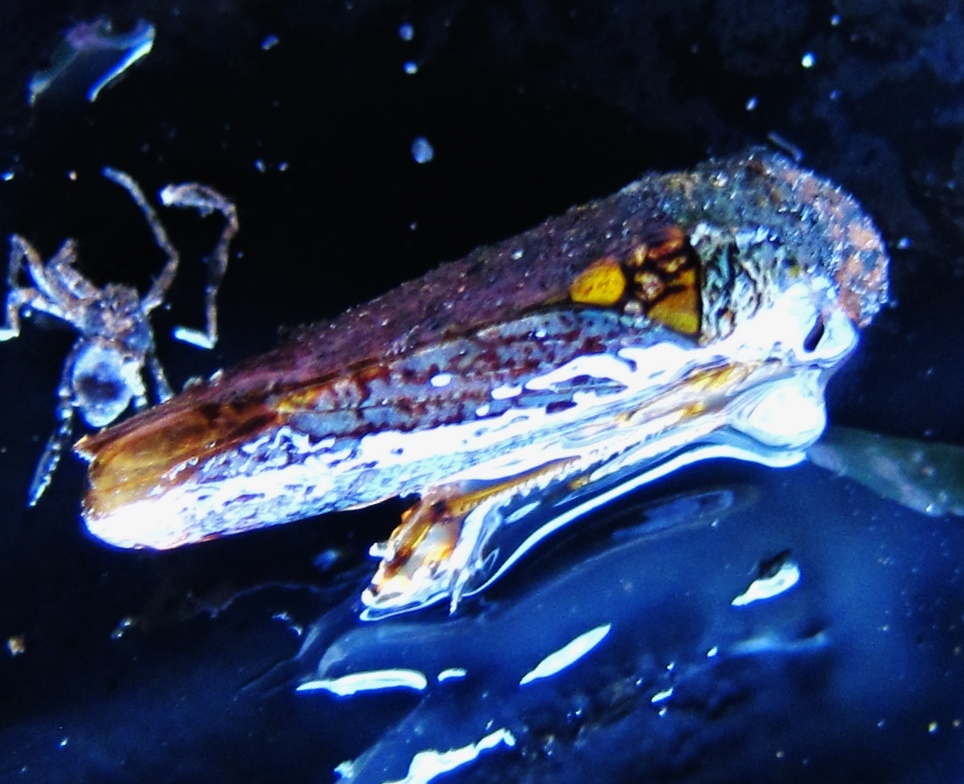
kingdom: Animalia
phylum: Arthropoda
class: Insecta
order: Hemiptera
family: Cicadellidae
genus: Oncometopia
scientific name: Oncometopia orbona
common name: Broad-headed sharpshooter
